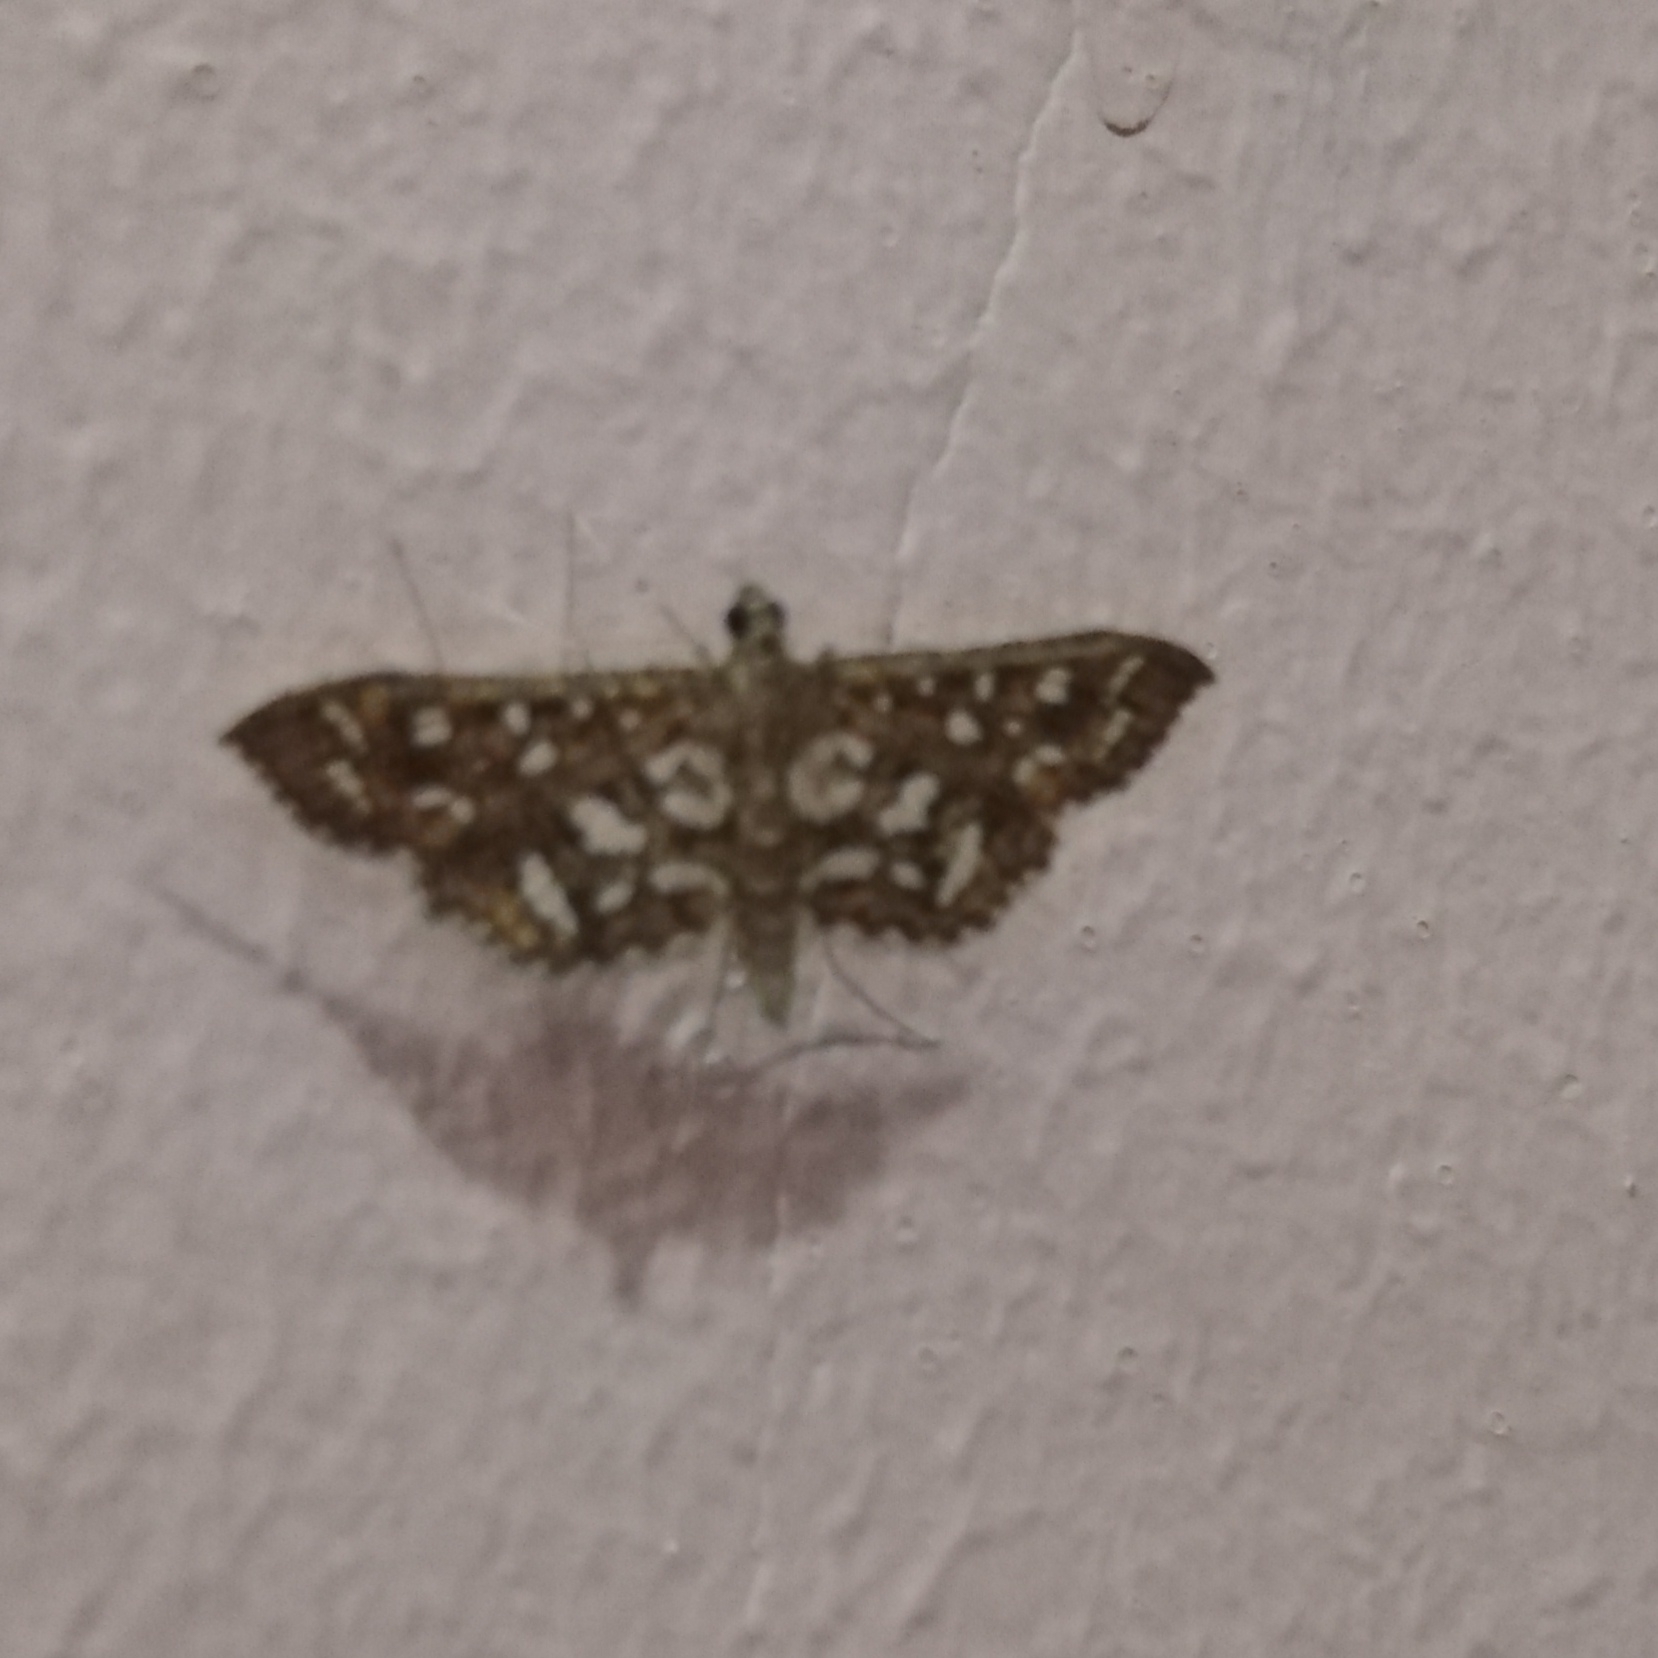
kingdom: Animalia
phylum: Arthropoda
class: Insecta
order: Lepidoptera
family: Crambidae
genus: Nausinoe
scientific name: Nausinoe geometralis
